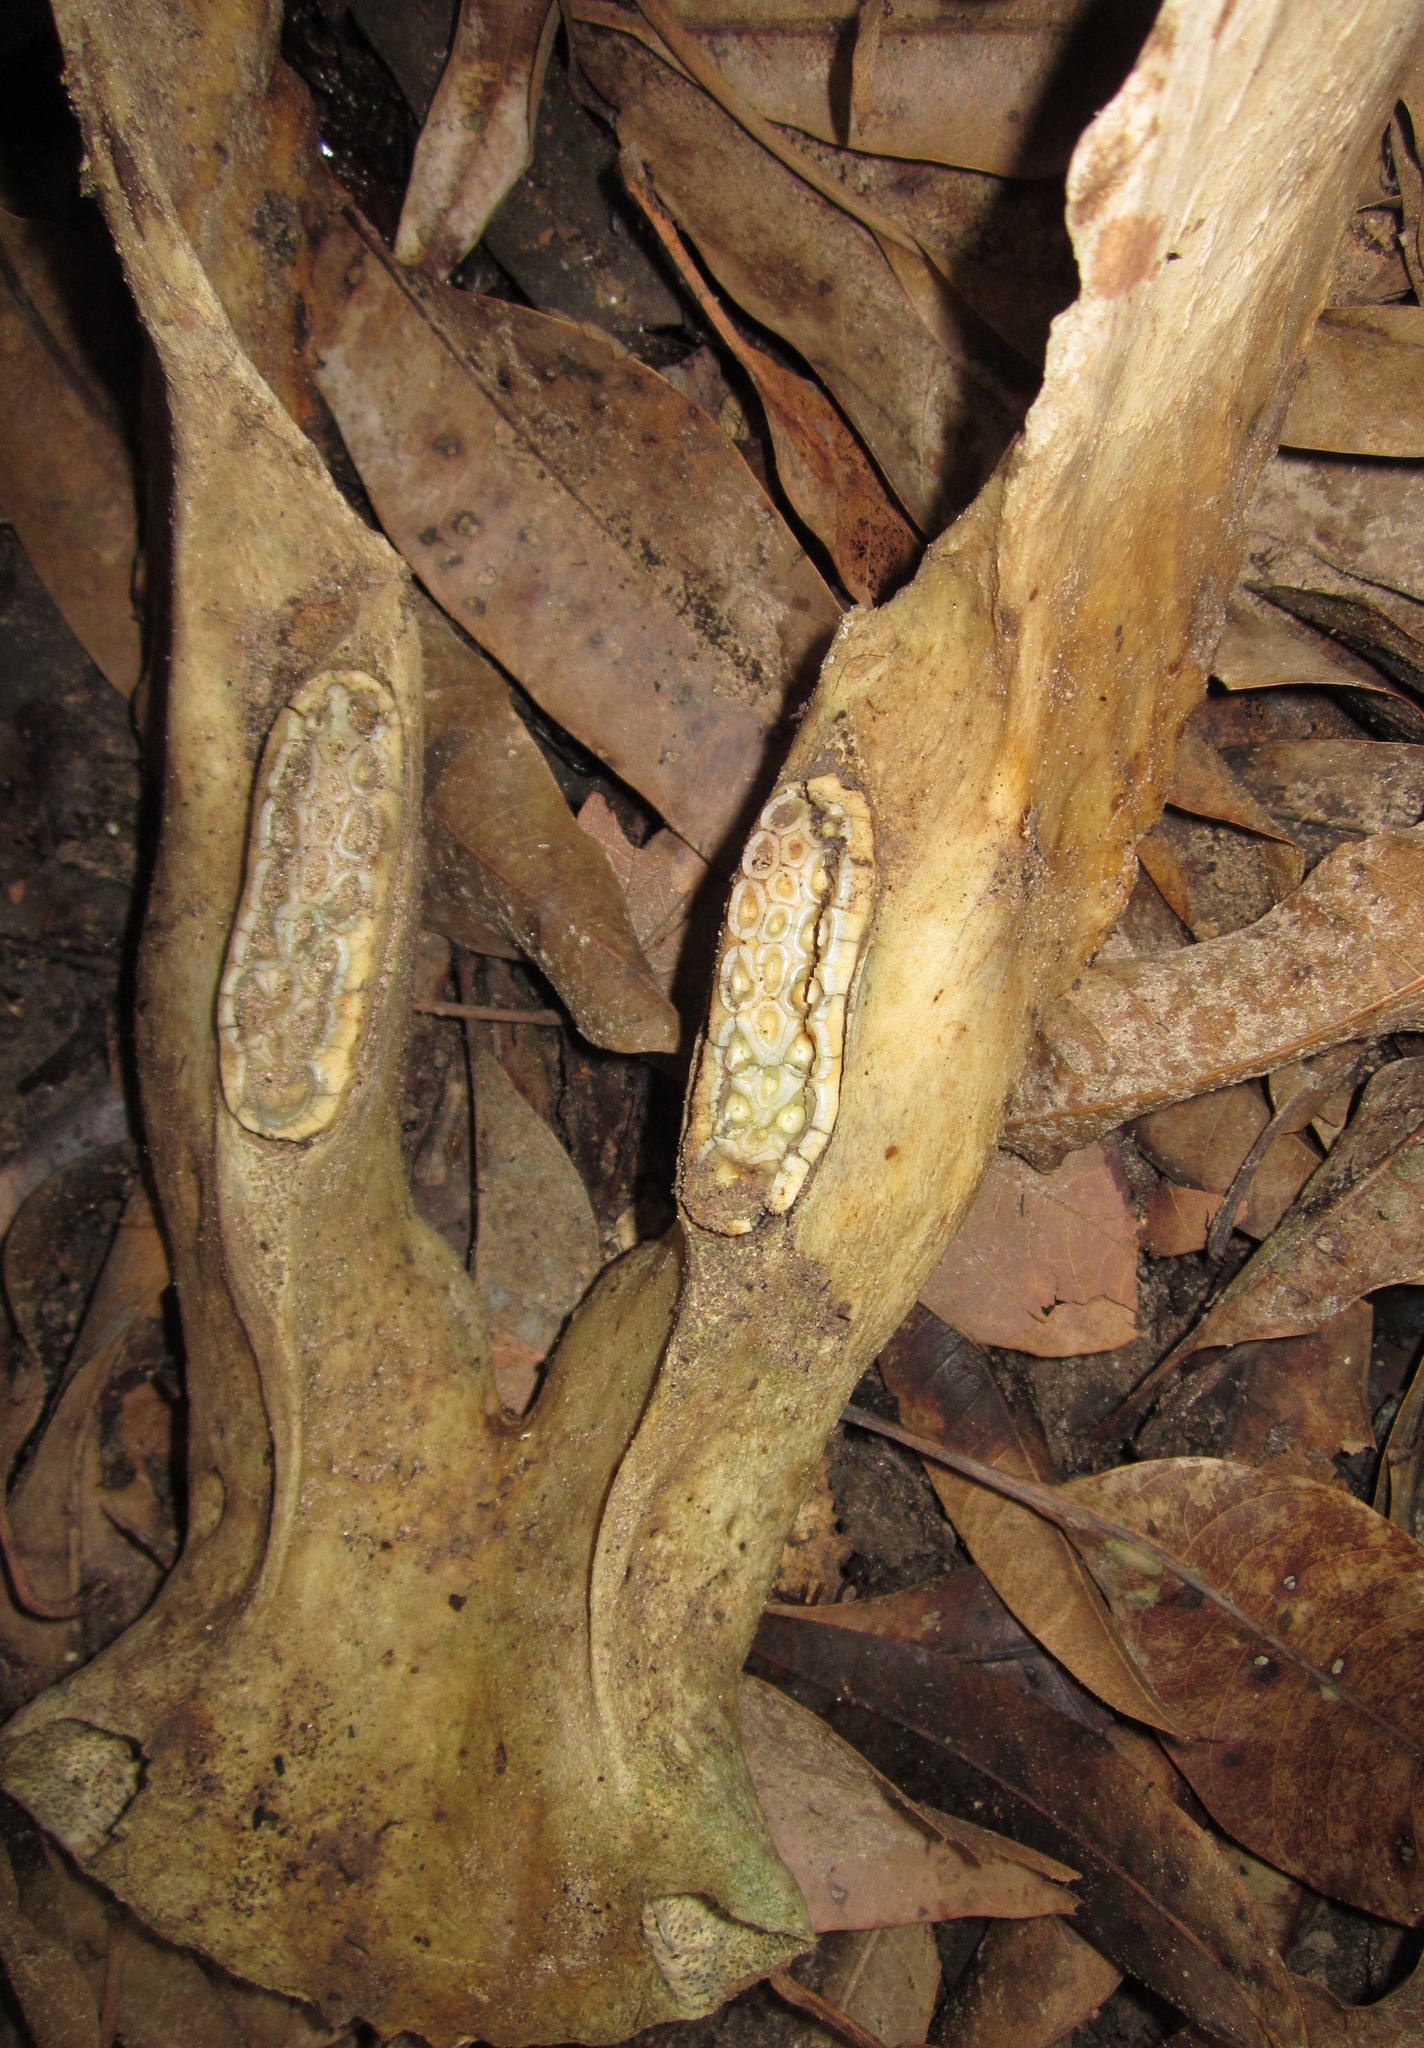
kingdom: Animalia
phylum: Chordata
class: Mammalia
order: Artiodactyla
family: Suidae
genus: Phacochoerus
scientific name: Phacochoerus africanus
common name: Common warthog
